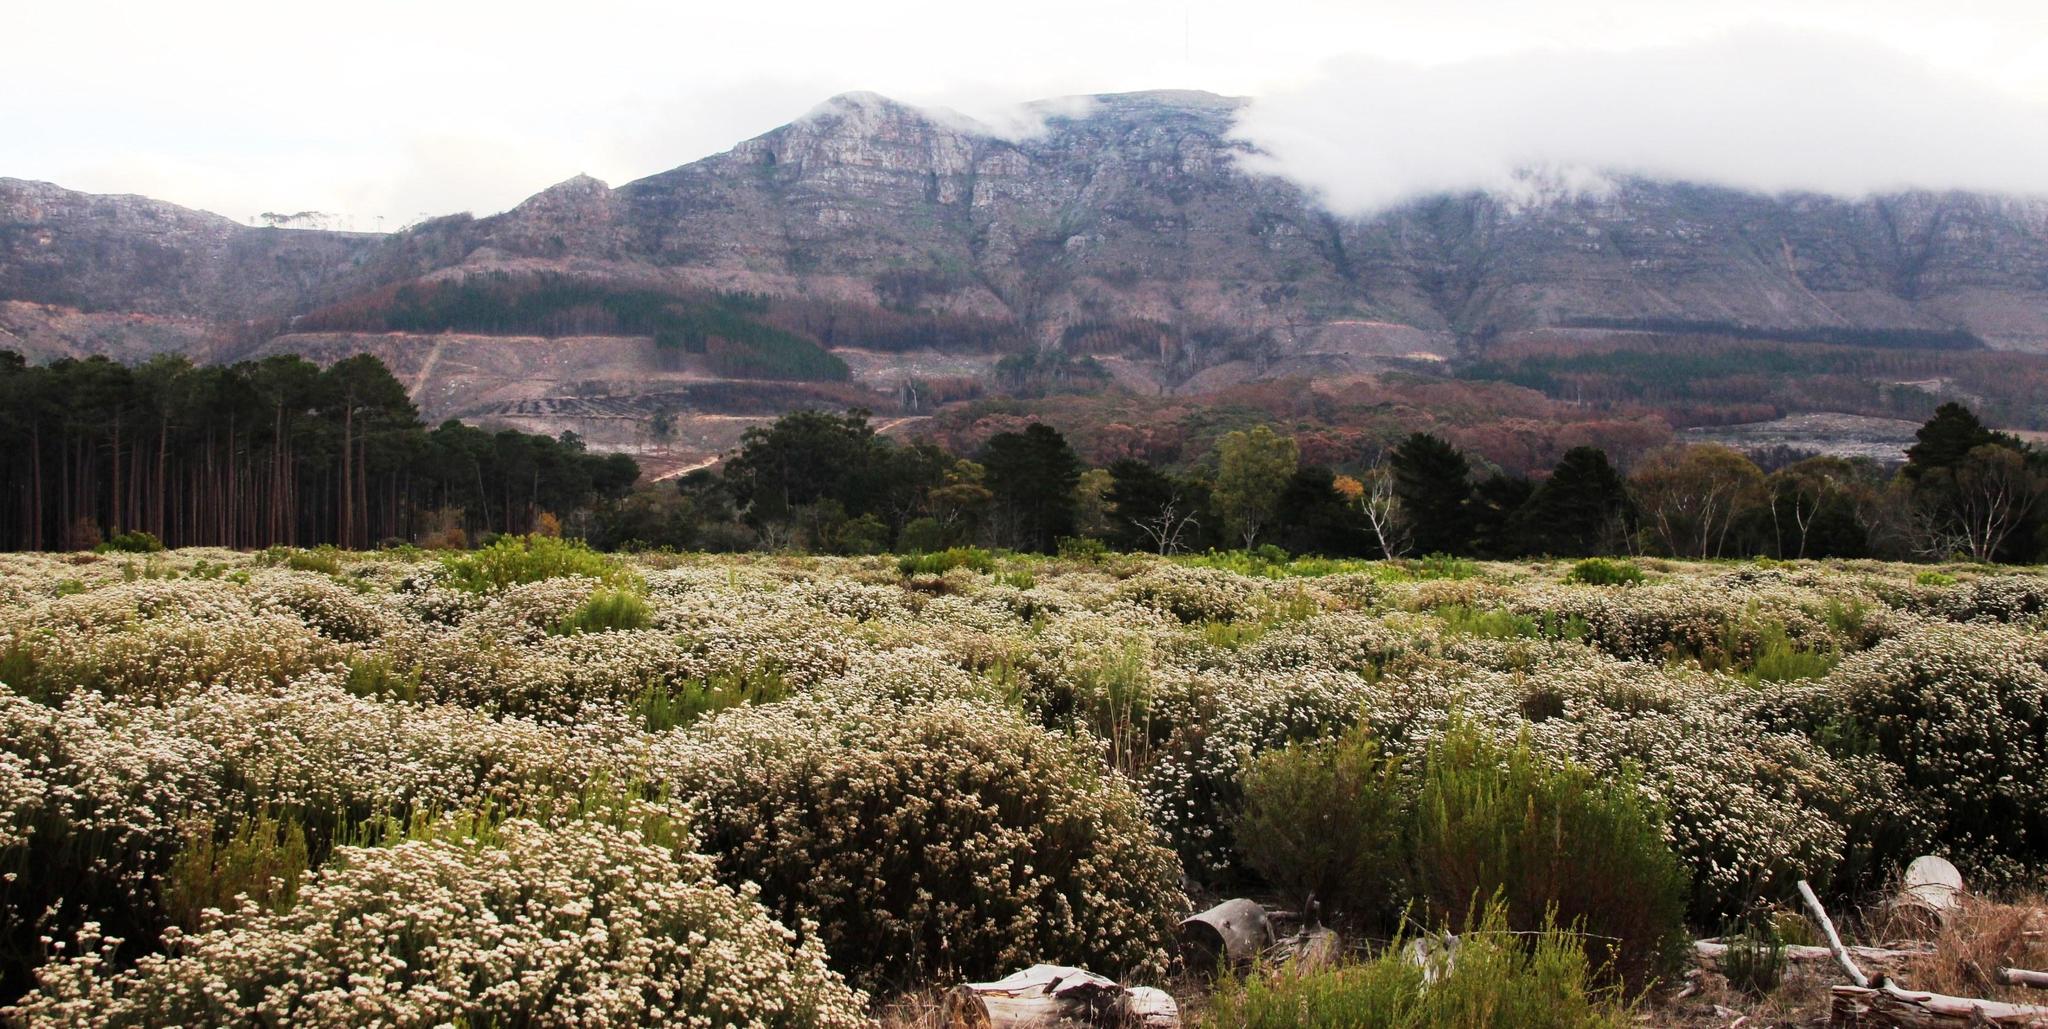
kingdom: Plantae
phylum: Tracheophyta
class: Magnoliopsida
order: Asterales
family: Asteraceae
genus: Metalasia
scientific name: Metalasia densa
